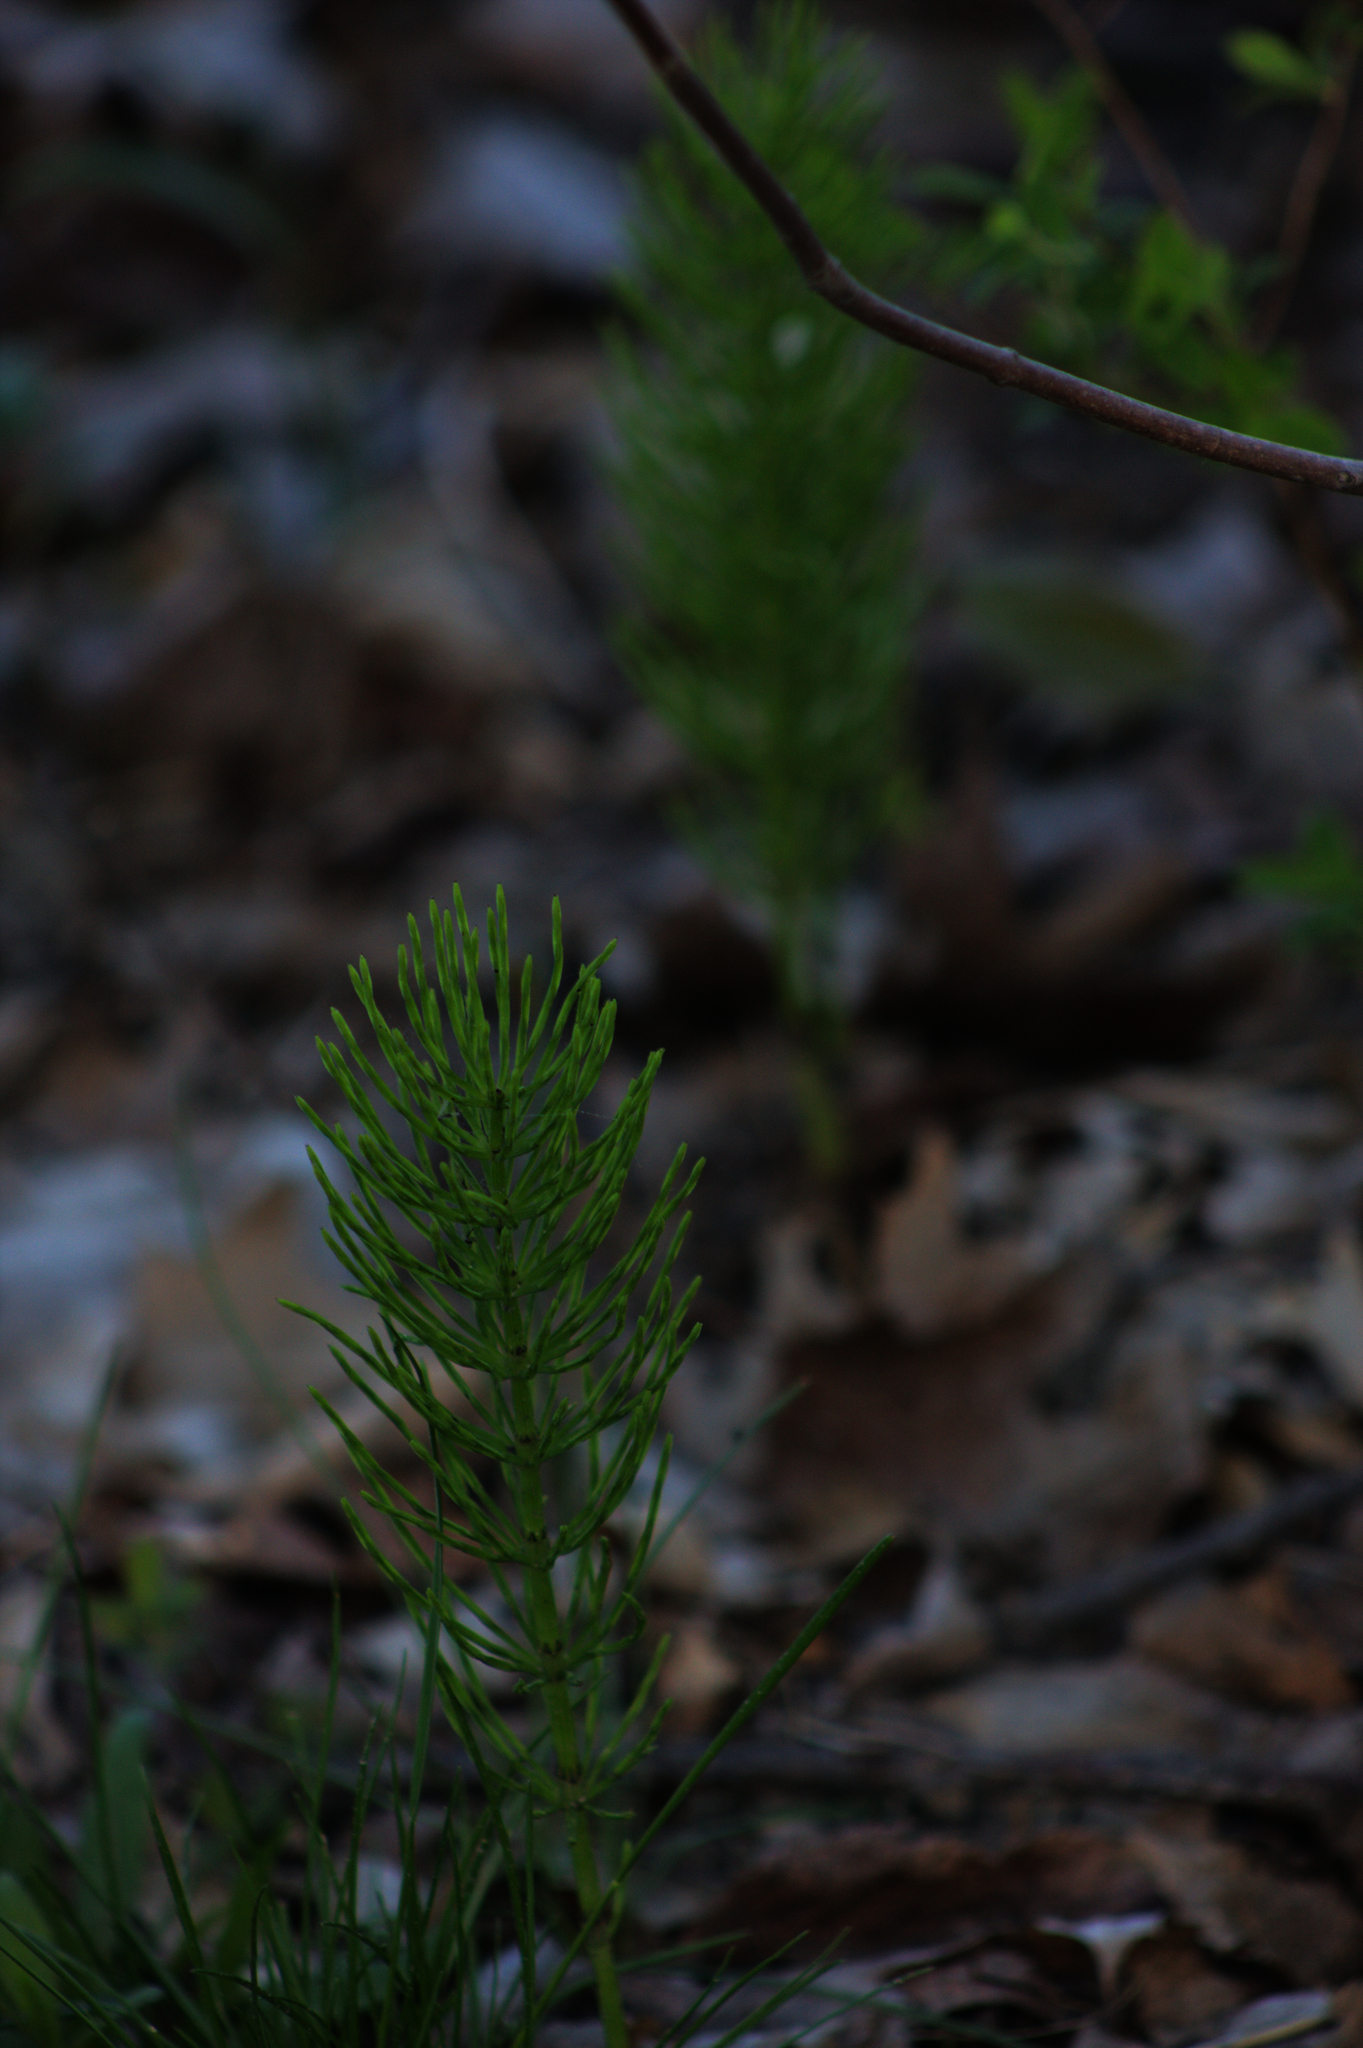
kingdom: Plantae
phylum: Tracheophyta
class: Polypodiopsida
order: Equisetales
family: Equisetaceae
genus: Equisetum
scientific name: Equisetum arvense
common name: Field horsetail
